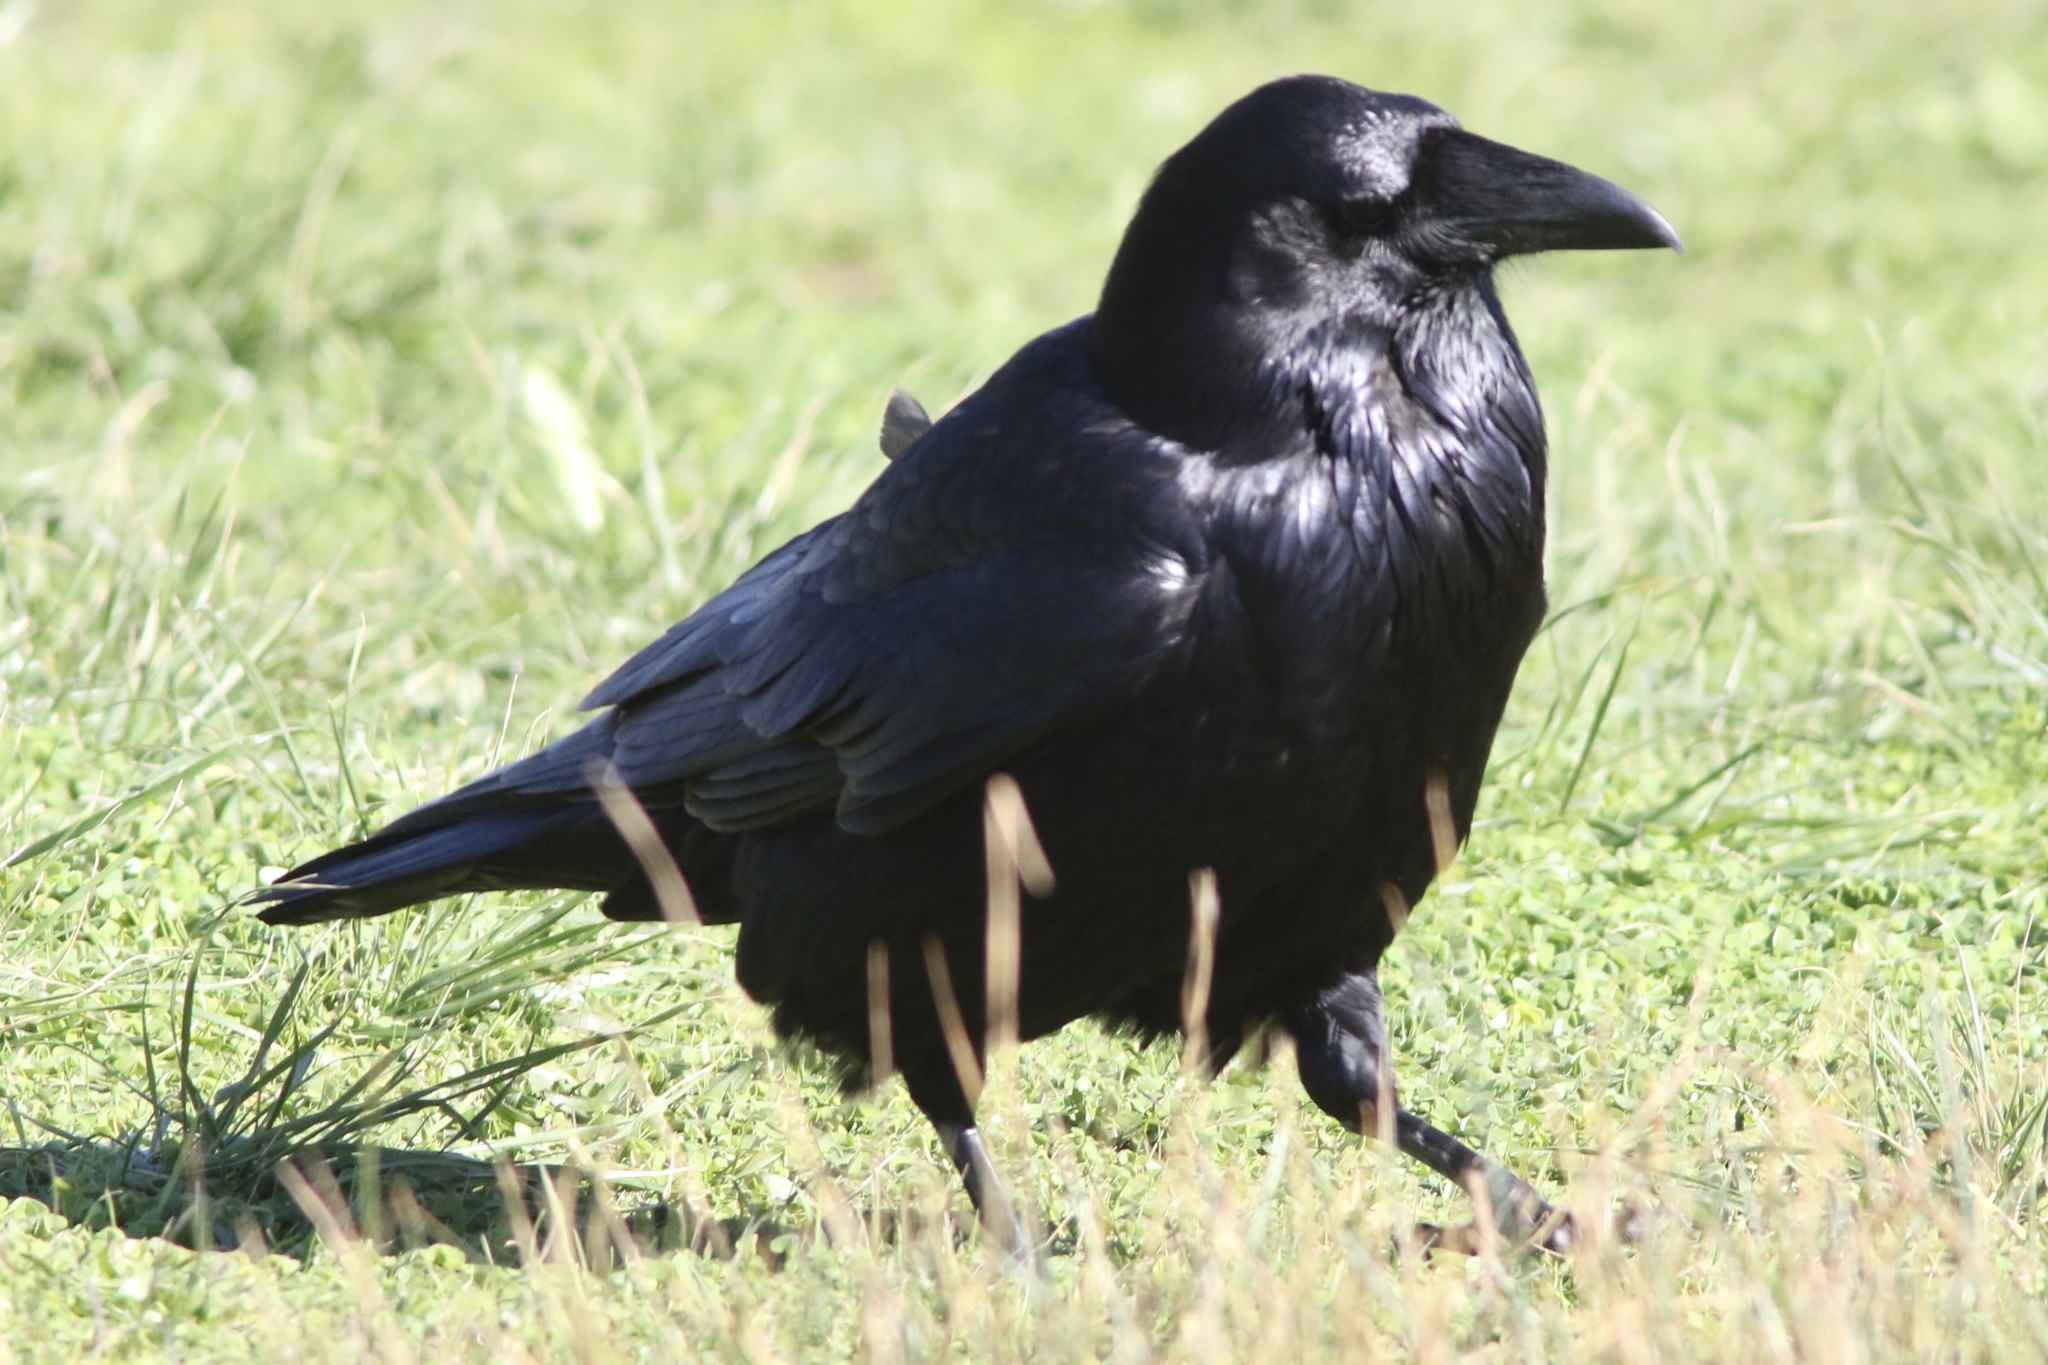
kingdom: Animalia
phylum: Chordata
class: Aves
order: Passeriformes
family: Corvidae
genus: Corvus
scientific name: Corvus corax
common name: Common raven
